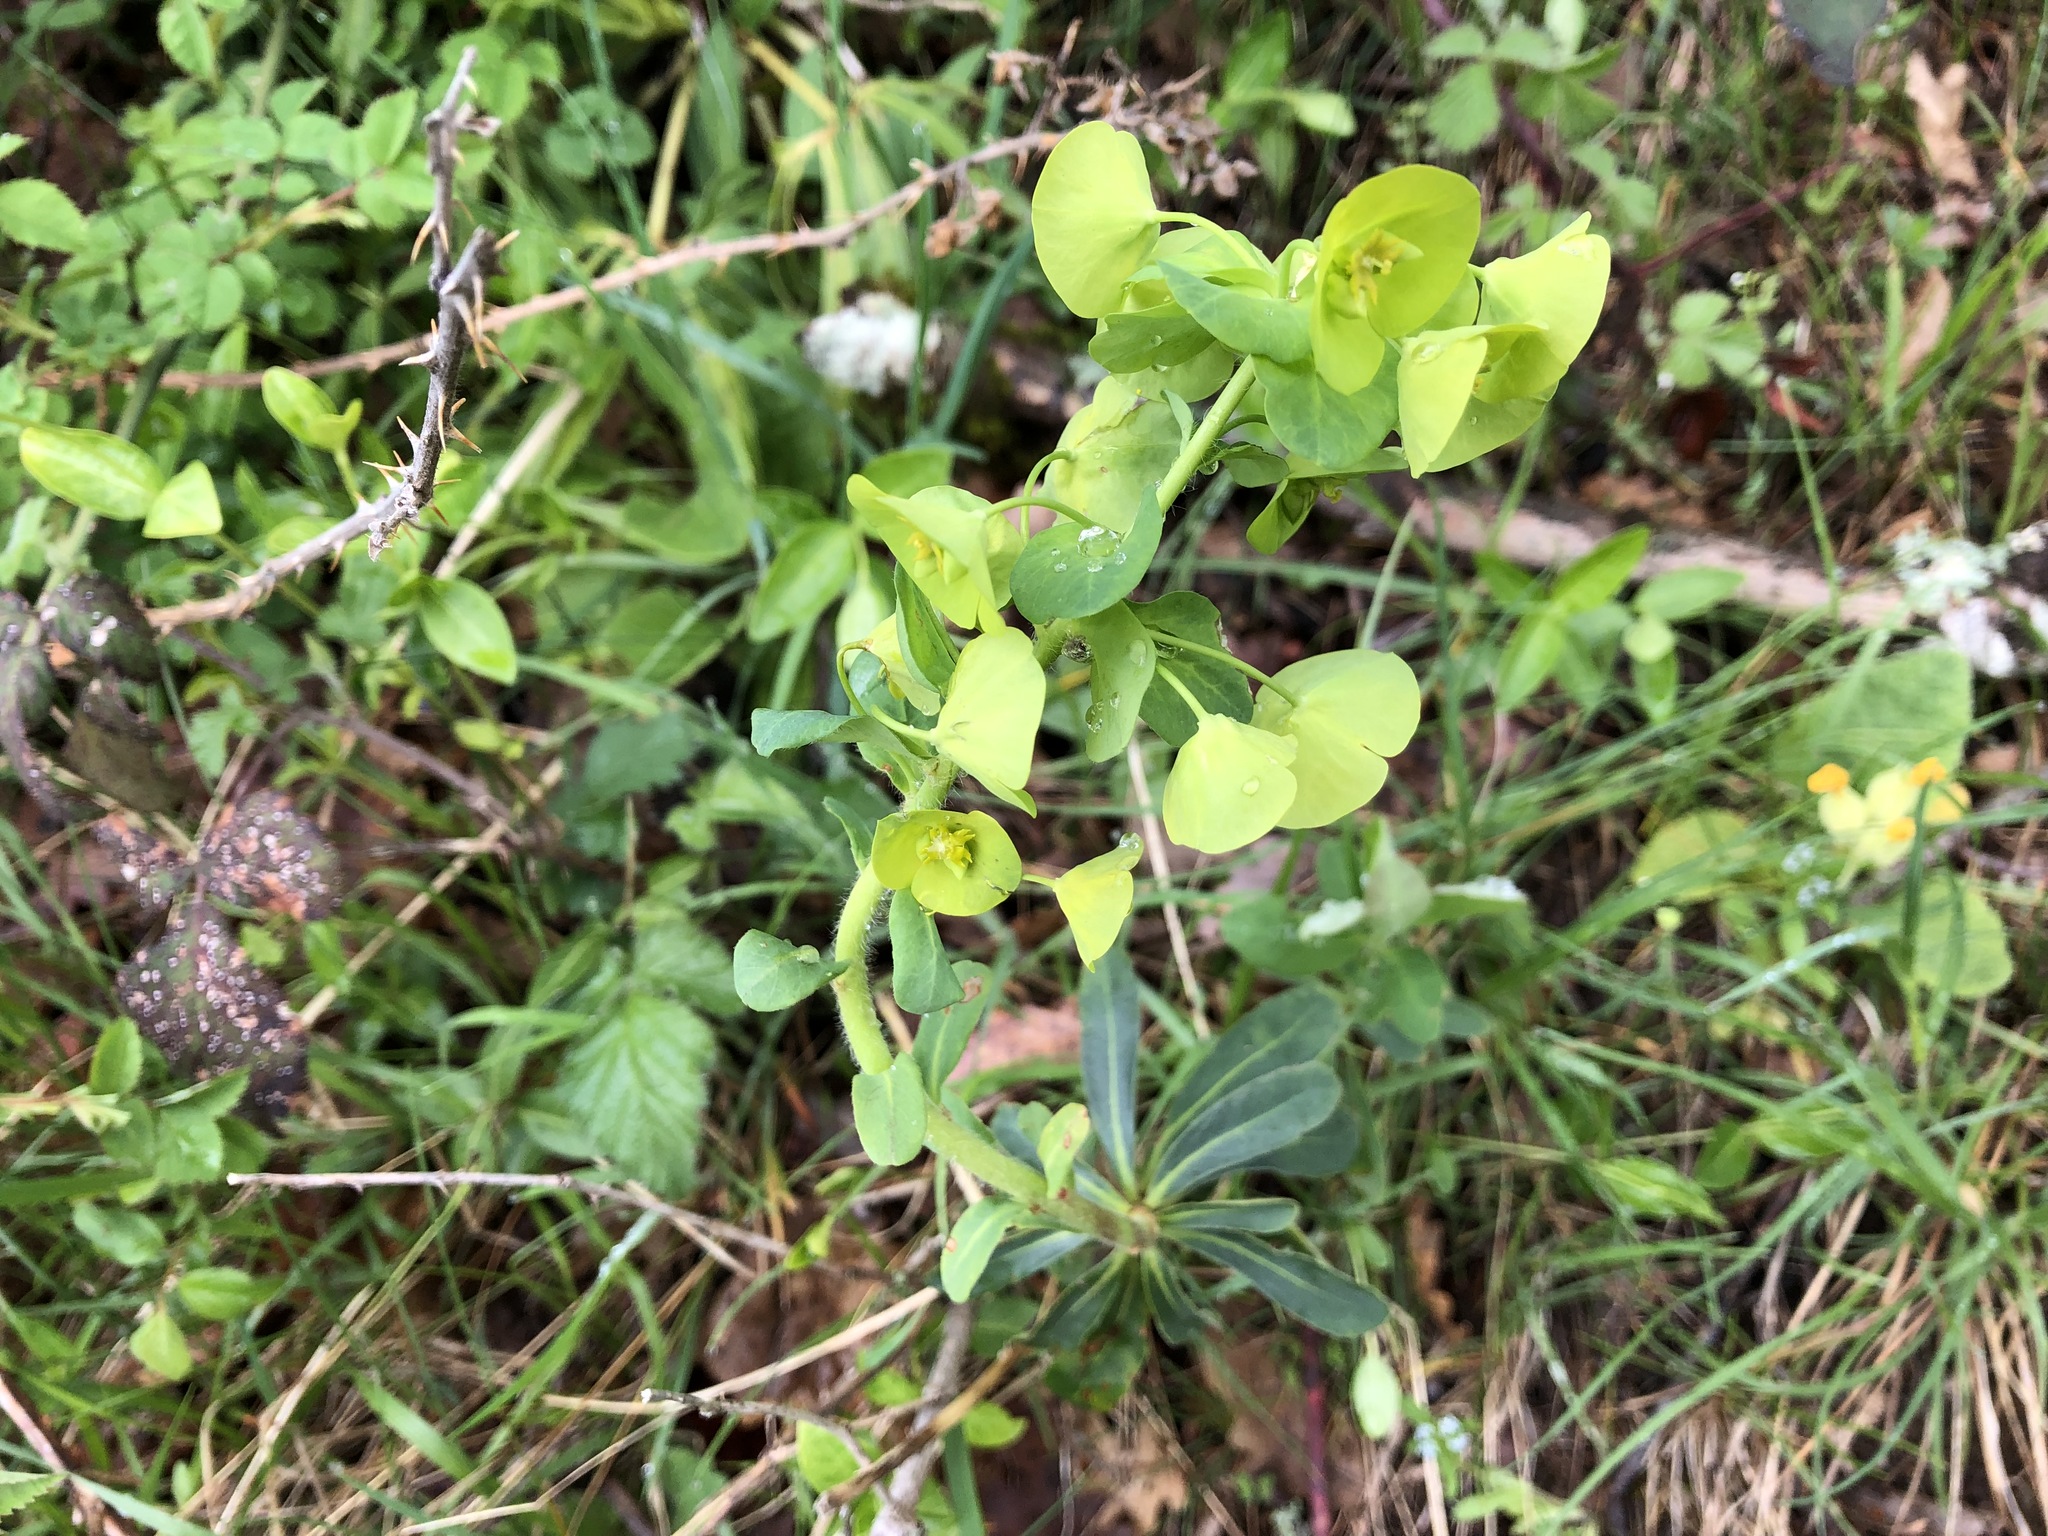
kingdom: Plantae
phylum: Tracheophyta
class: Magnoliopsida
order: Malpighiales
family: Euphorbiaceae
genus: Euphorbia
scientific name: Euphorbia amygdaloides
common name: Wood spurge
